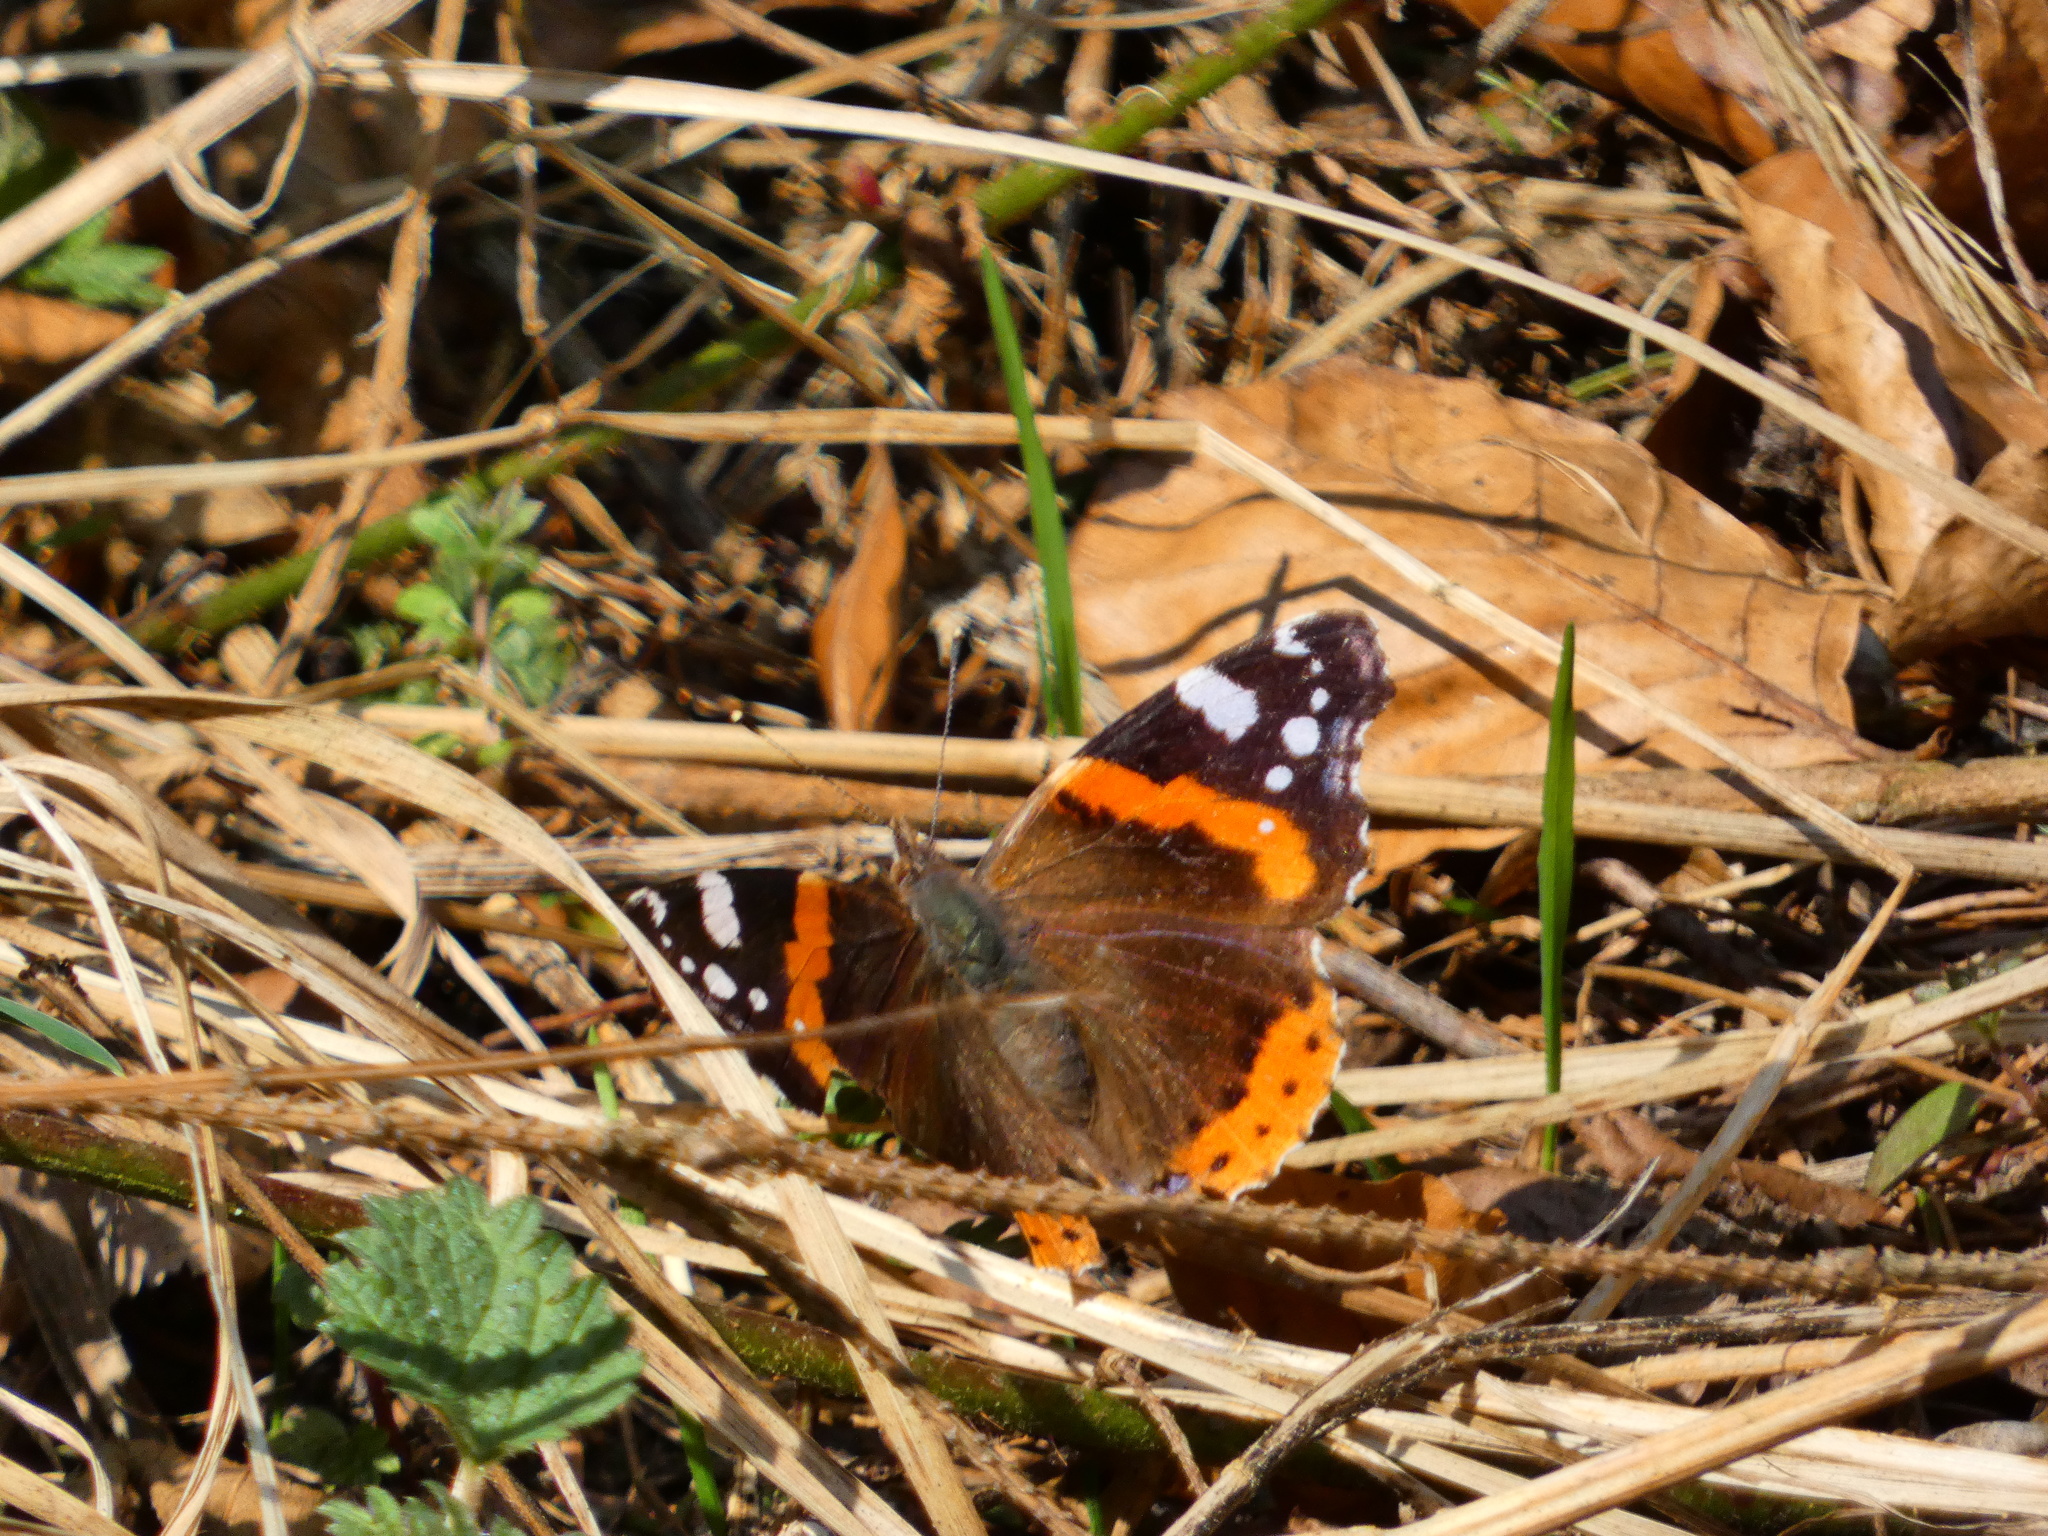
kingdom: Animalia
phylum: Arthropoda
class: Insecta
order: Lepidoptera
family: Nymphalidae
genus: Vanessa
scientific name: Vanessa atalanta
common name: Red admiral
